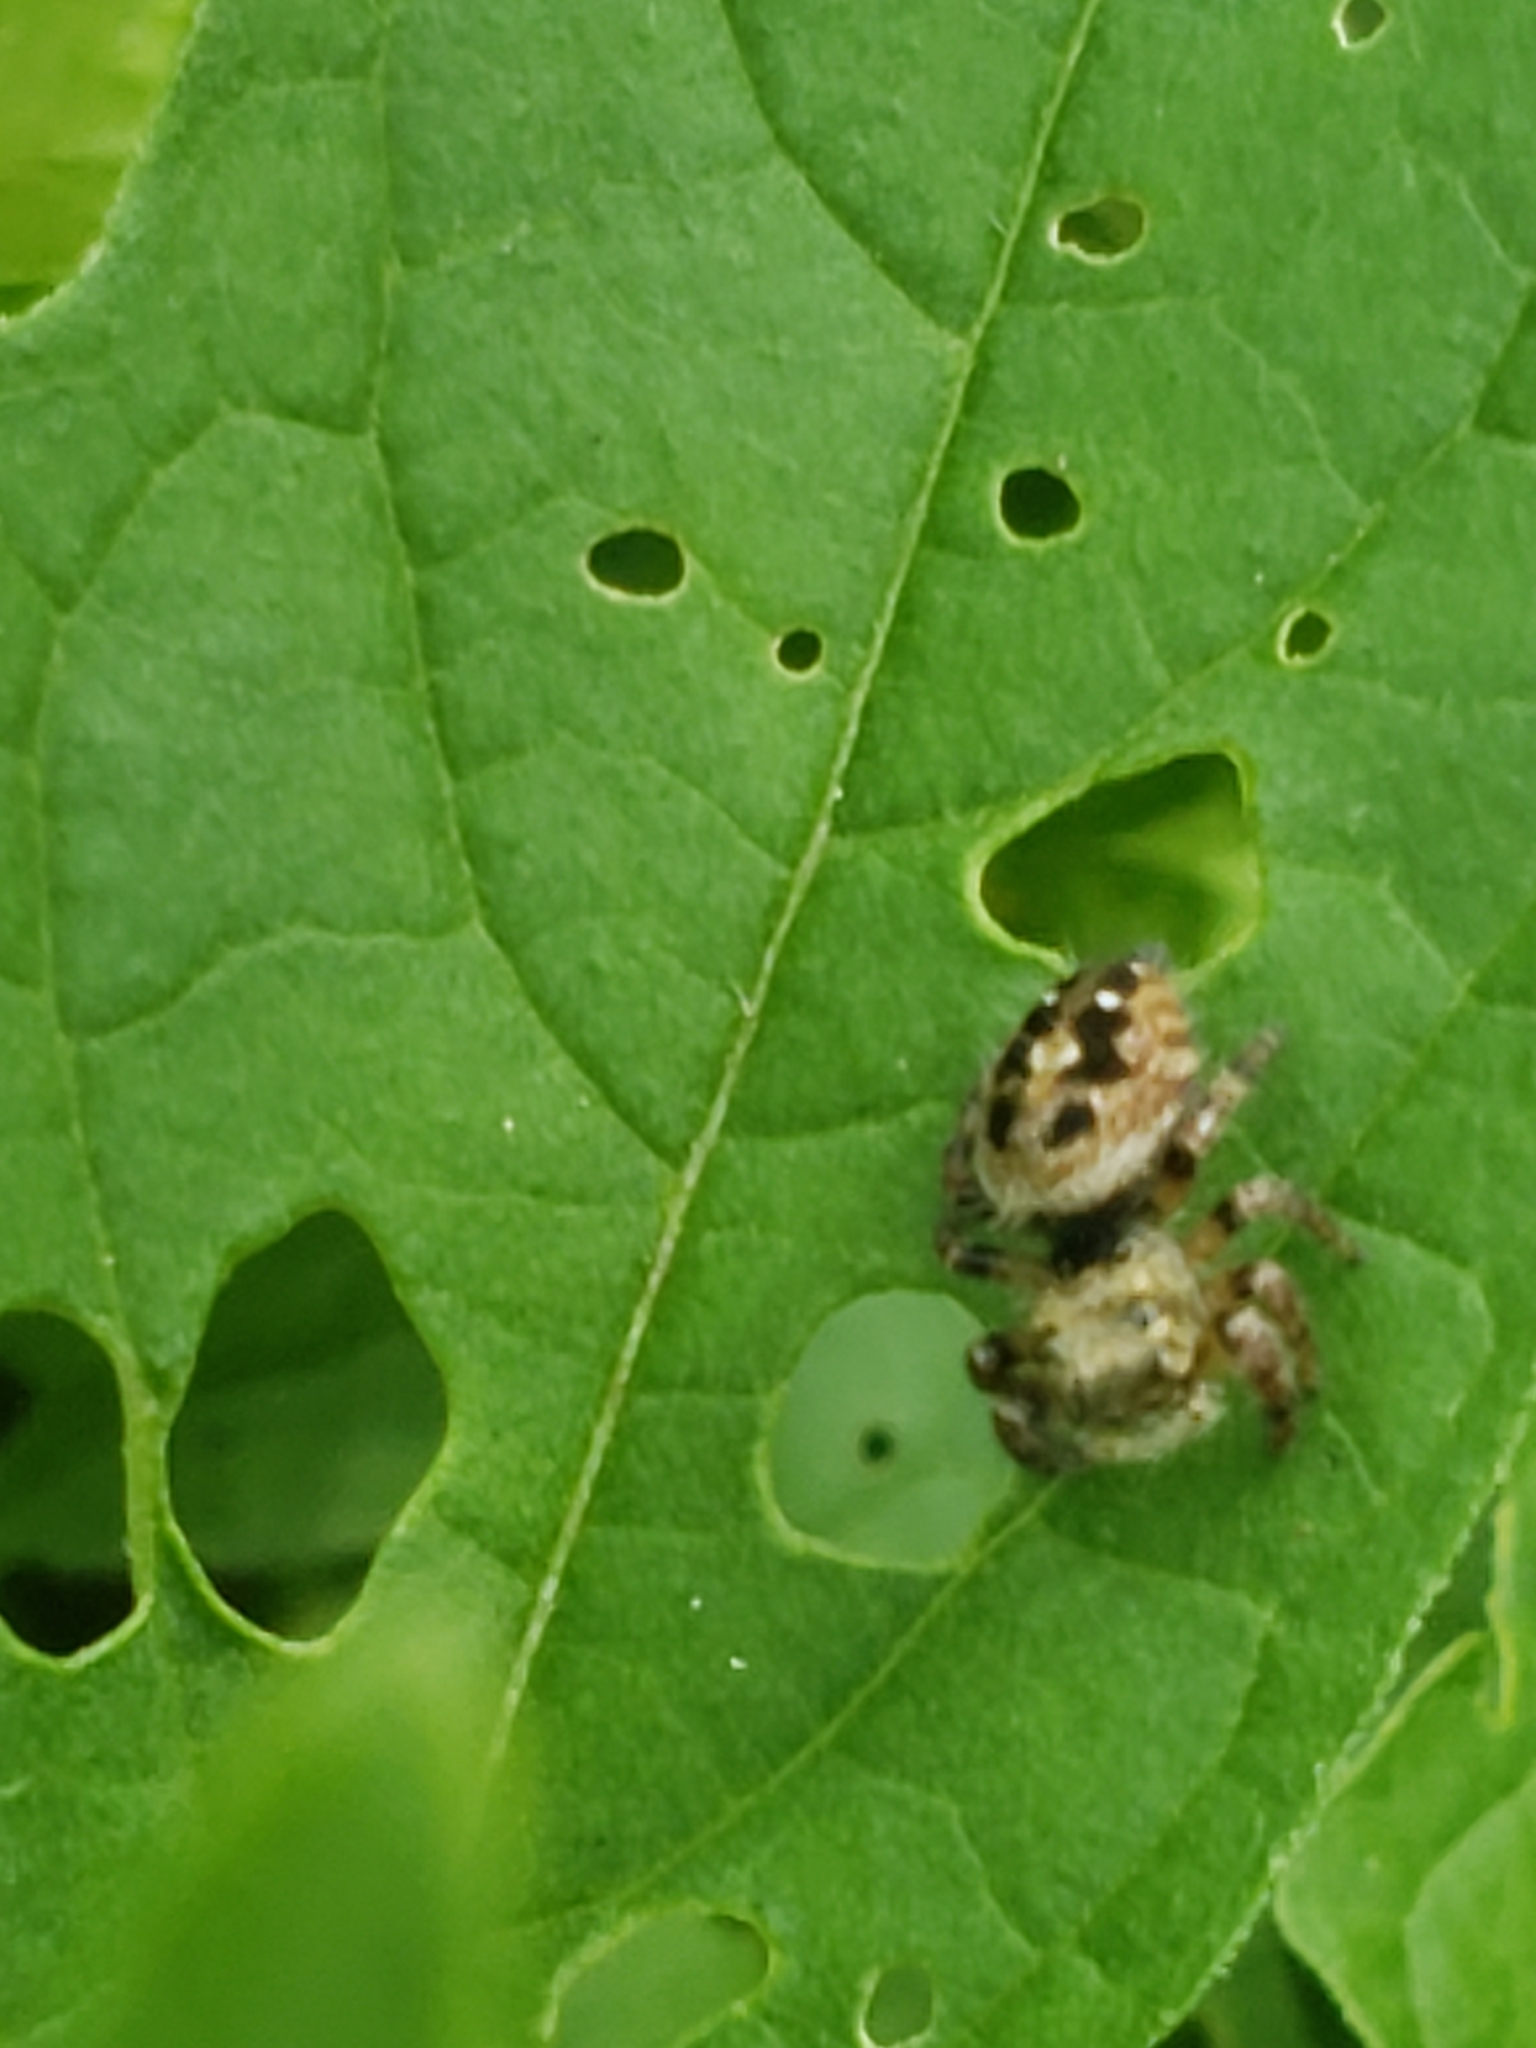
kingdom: Animalia
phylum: Arthropoda
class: Arachnida
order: Araneae
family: Salticidae
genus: Phidippus
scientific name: Phidippus princeps
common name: Grayish jumping spider
